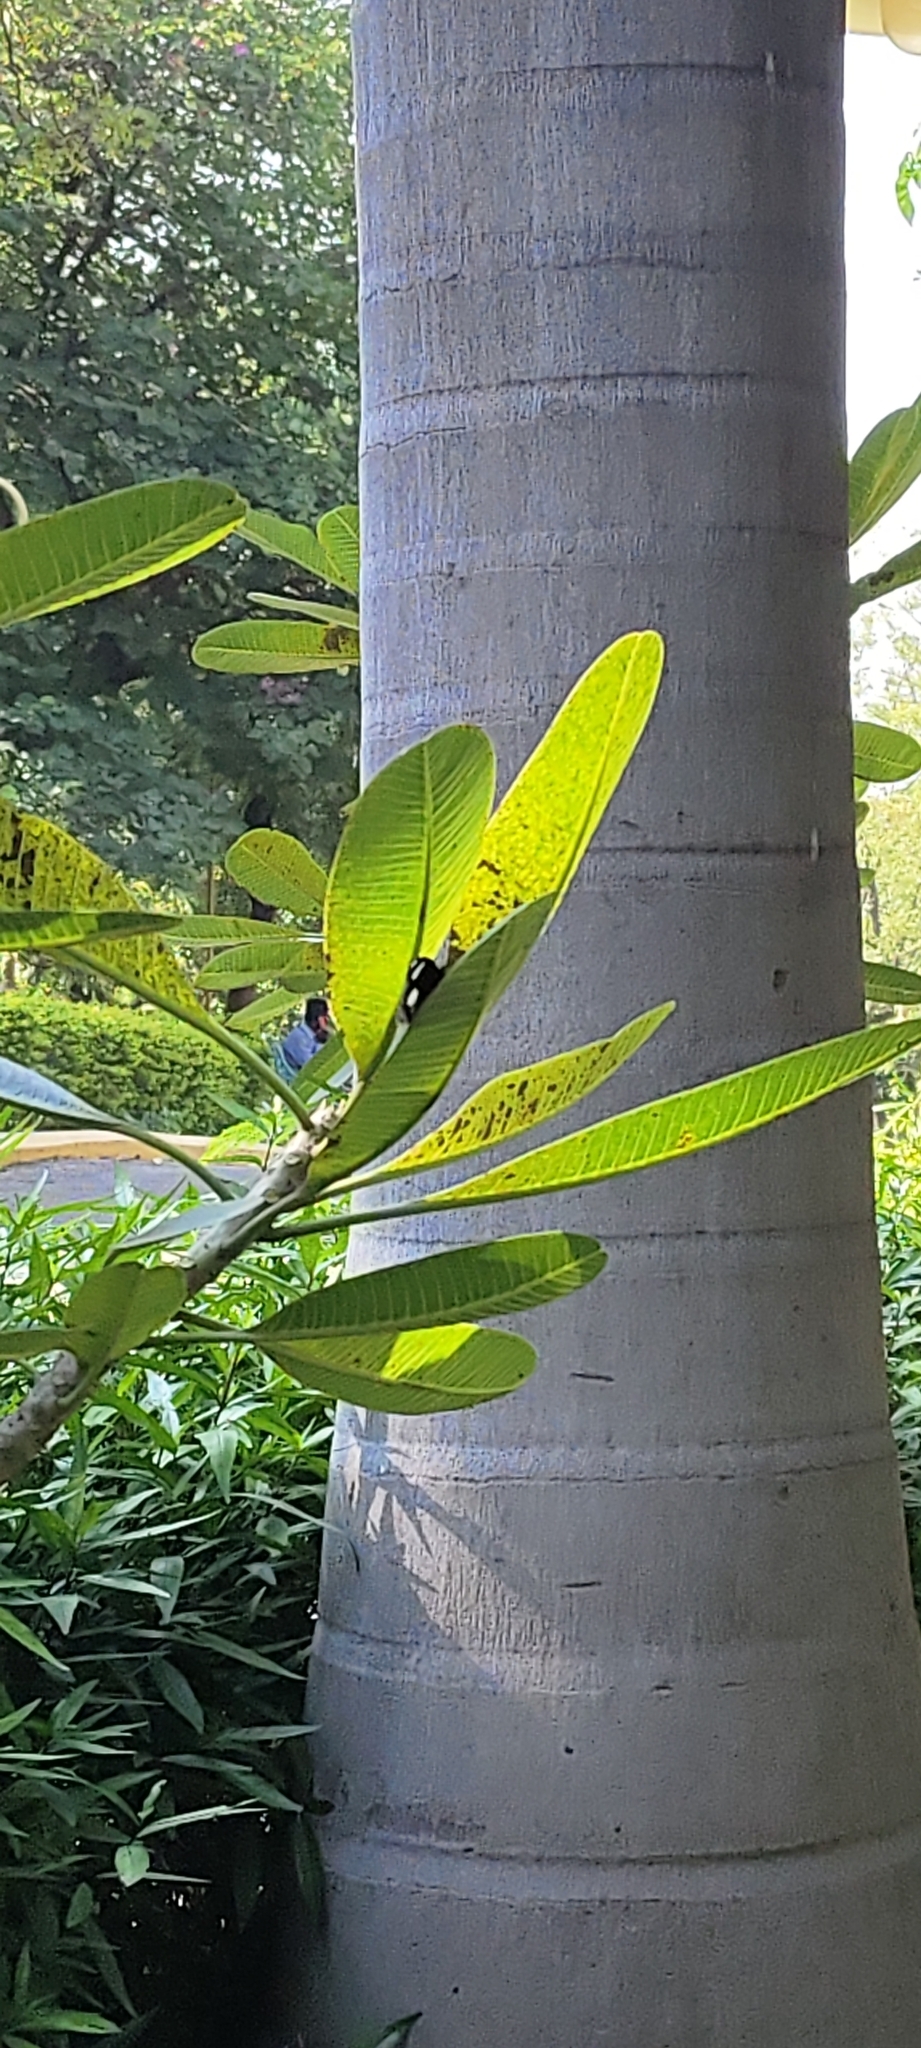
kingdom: Animalia
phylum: Arthropoda
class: Insecta
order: Lepidoptera
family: Nymphalidae
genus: Hypolimnas
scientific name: Hypolimnas bolina
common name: Great eggfly
